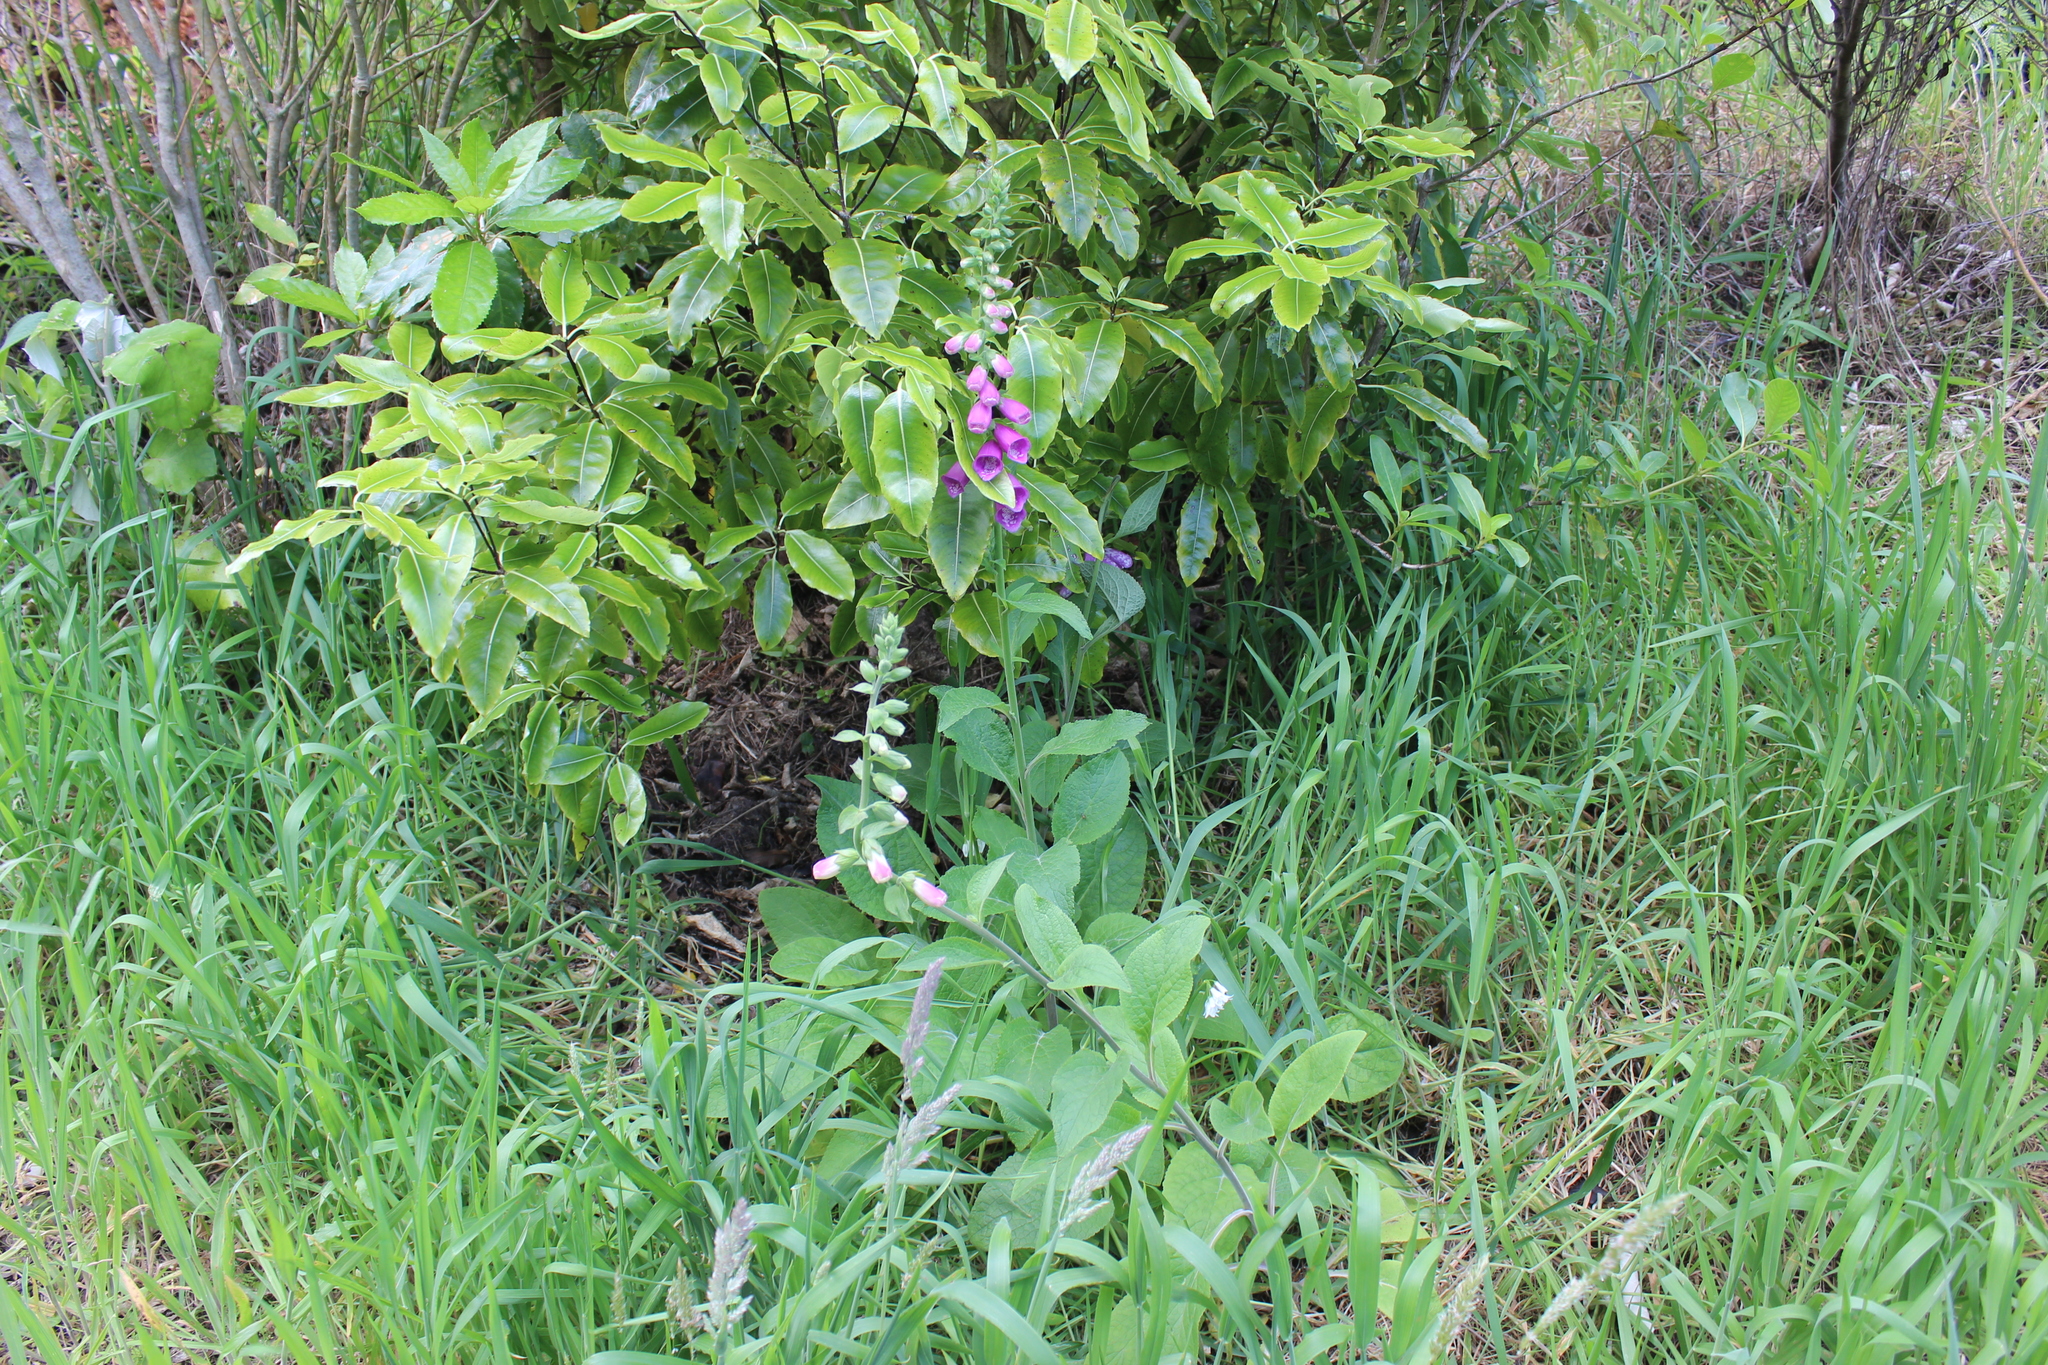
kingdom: Plantae
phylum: Tracheophyta
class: Magnoliopsida
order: Lamiales
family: Plantaginaceae
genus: Digitalis
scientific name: Digitalis purpurea
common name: Foxglove
